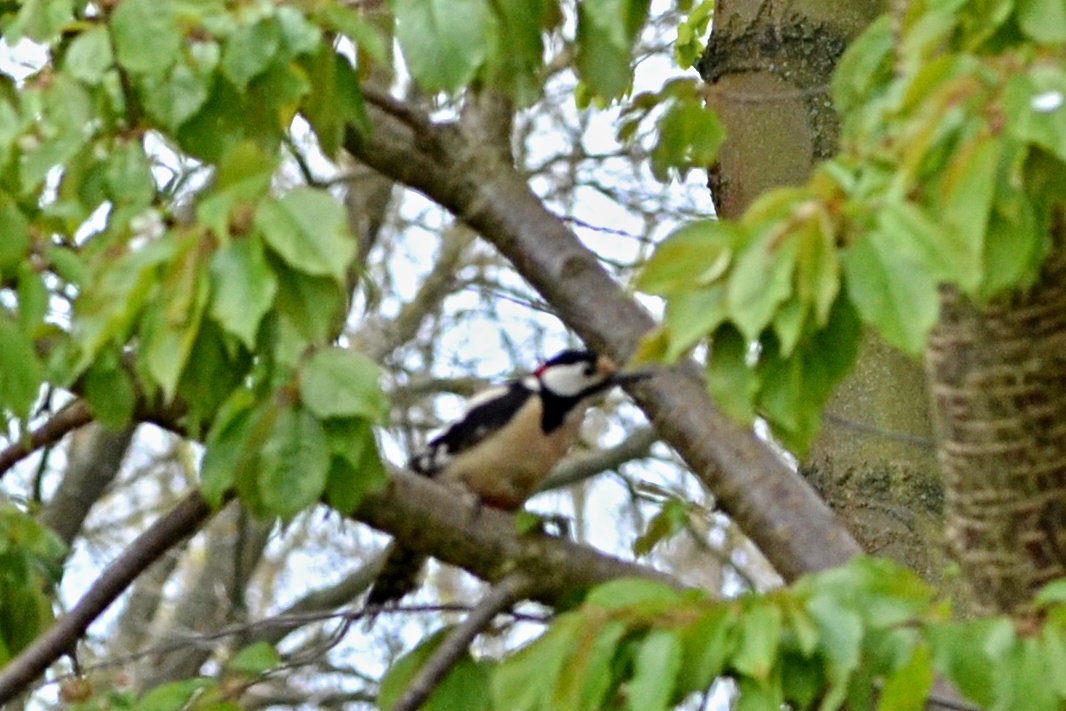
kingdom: Animalia
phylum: Chordata
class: Aves
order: Piciformes
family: Picidae
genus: Dendrocopos
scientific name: Dendrocopos major
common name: Great spotted woodpecker
